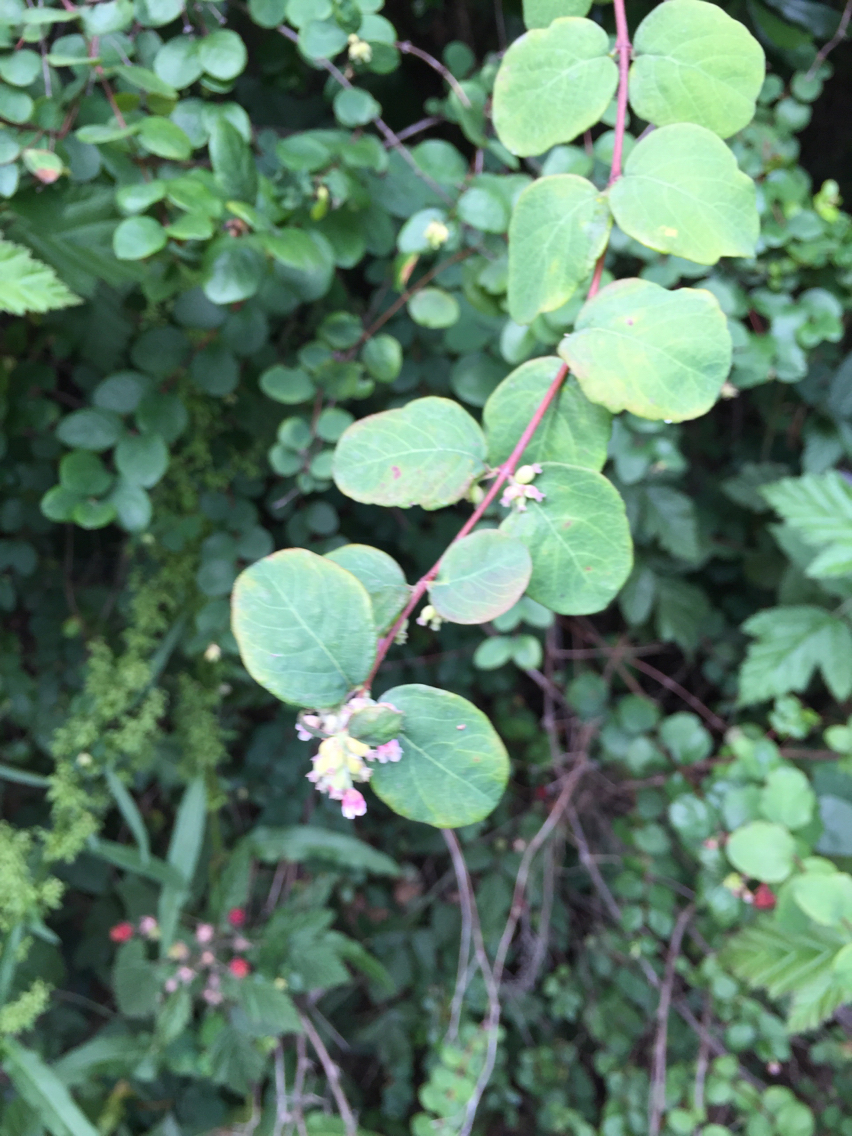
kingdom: Plantae
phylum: Tracheophyta
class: Magnoliopsida
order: Dipsacales
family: Caprifoliaceae
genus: Symphoricarpos
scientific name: Symphoricarpos albus
